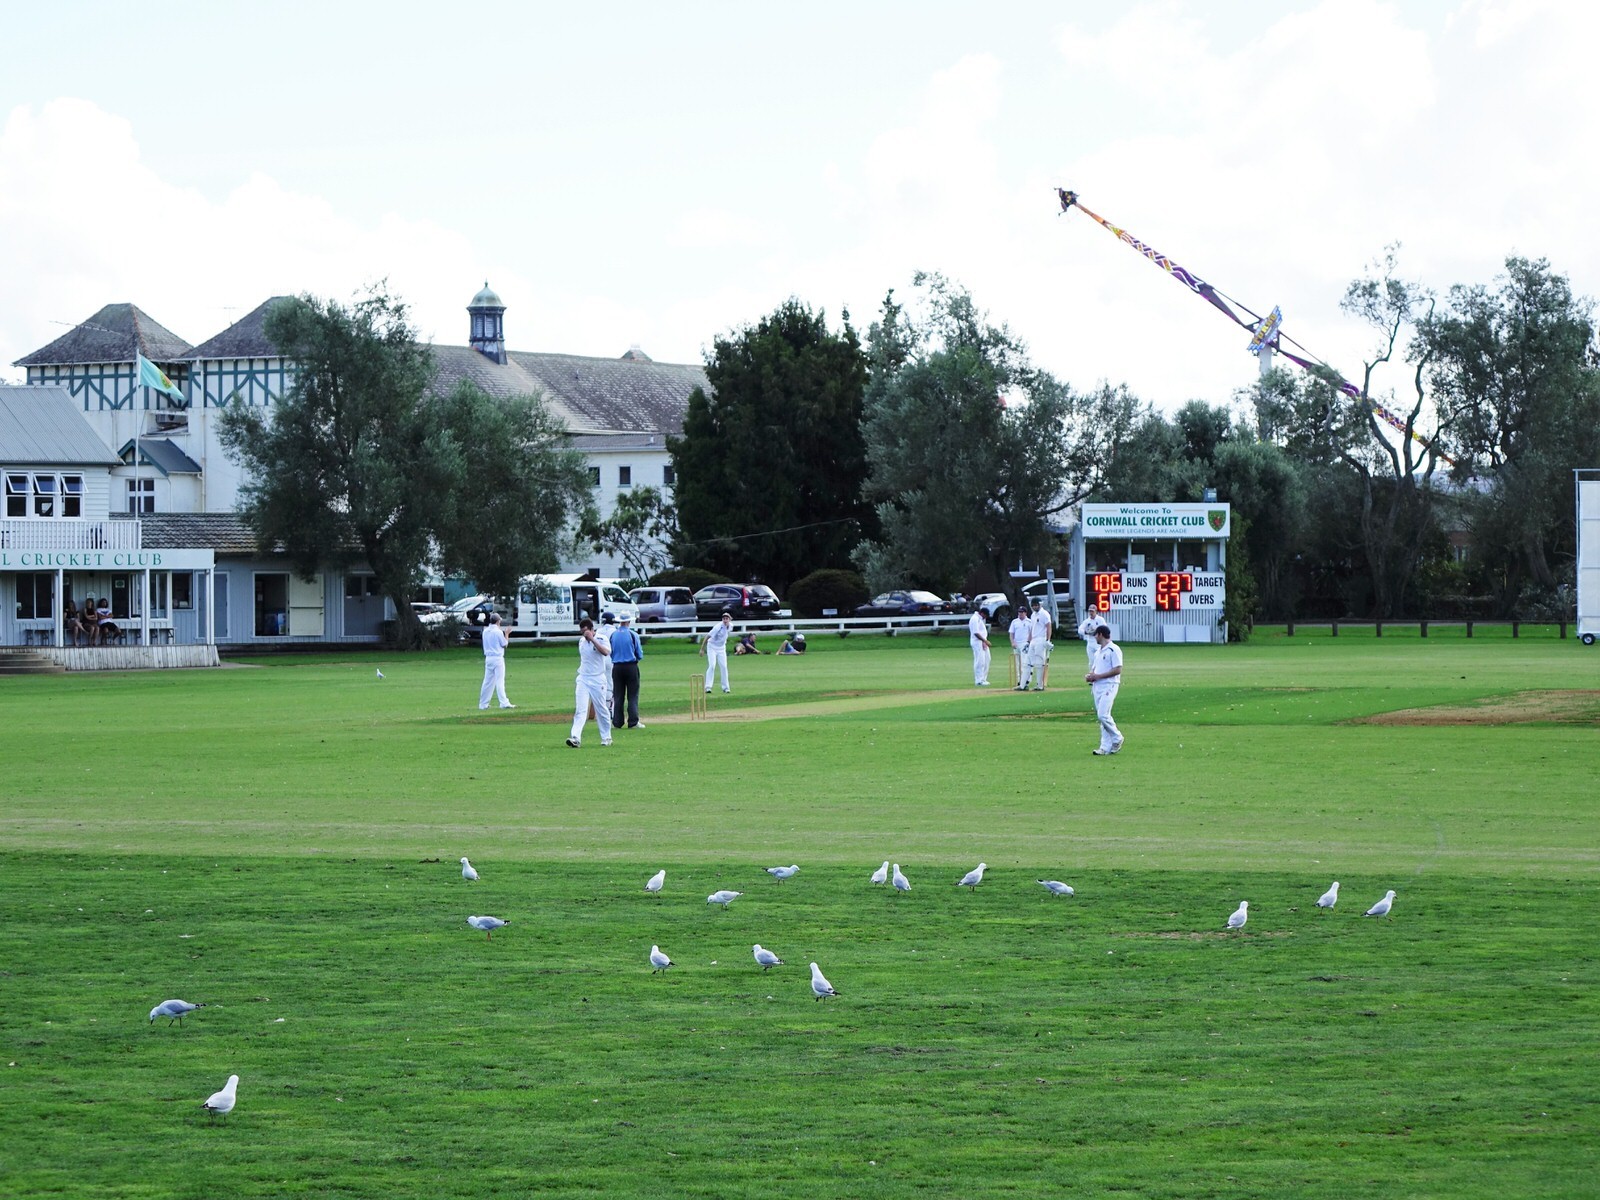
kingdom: Animalia
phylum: Chordata
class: Aves
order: Charadriiformes
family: Laridae
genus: Chroicocephalus
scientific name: Chroicocephalus novaehollandiae
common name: Silver gull
